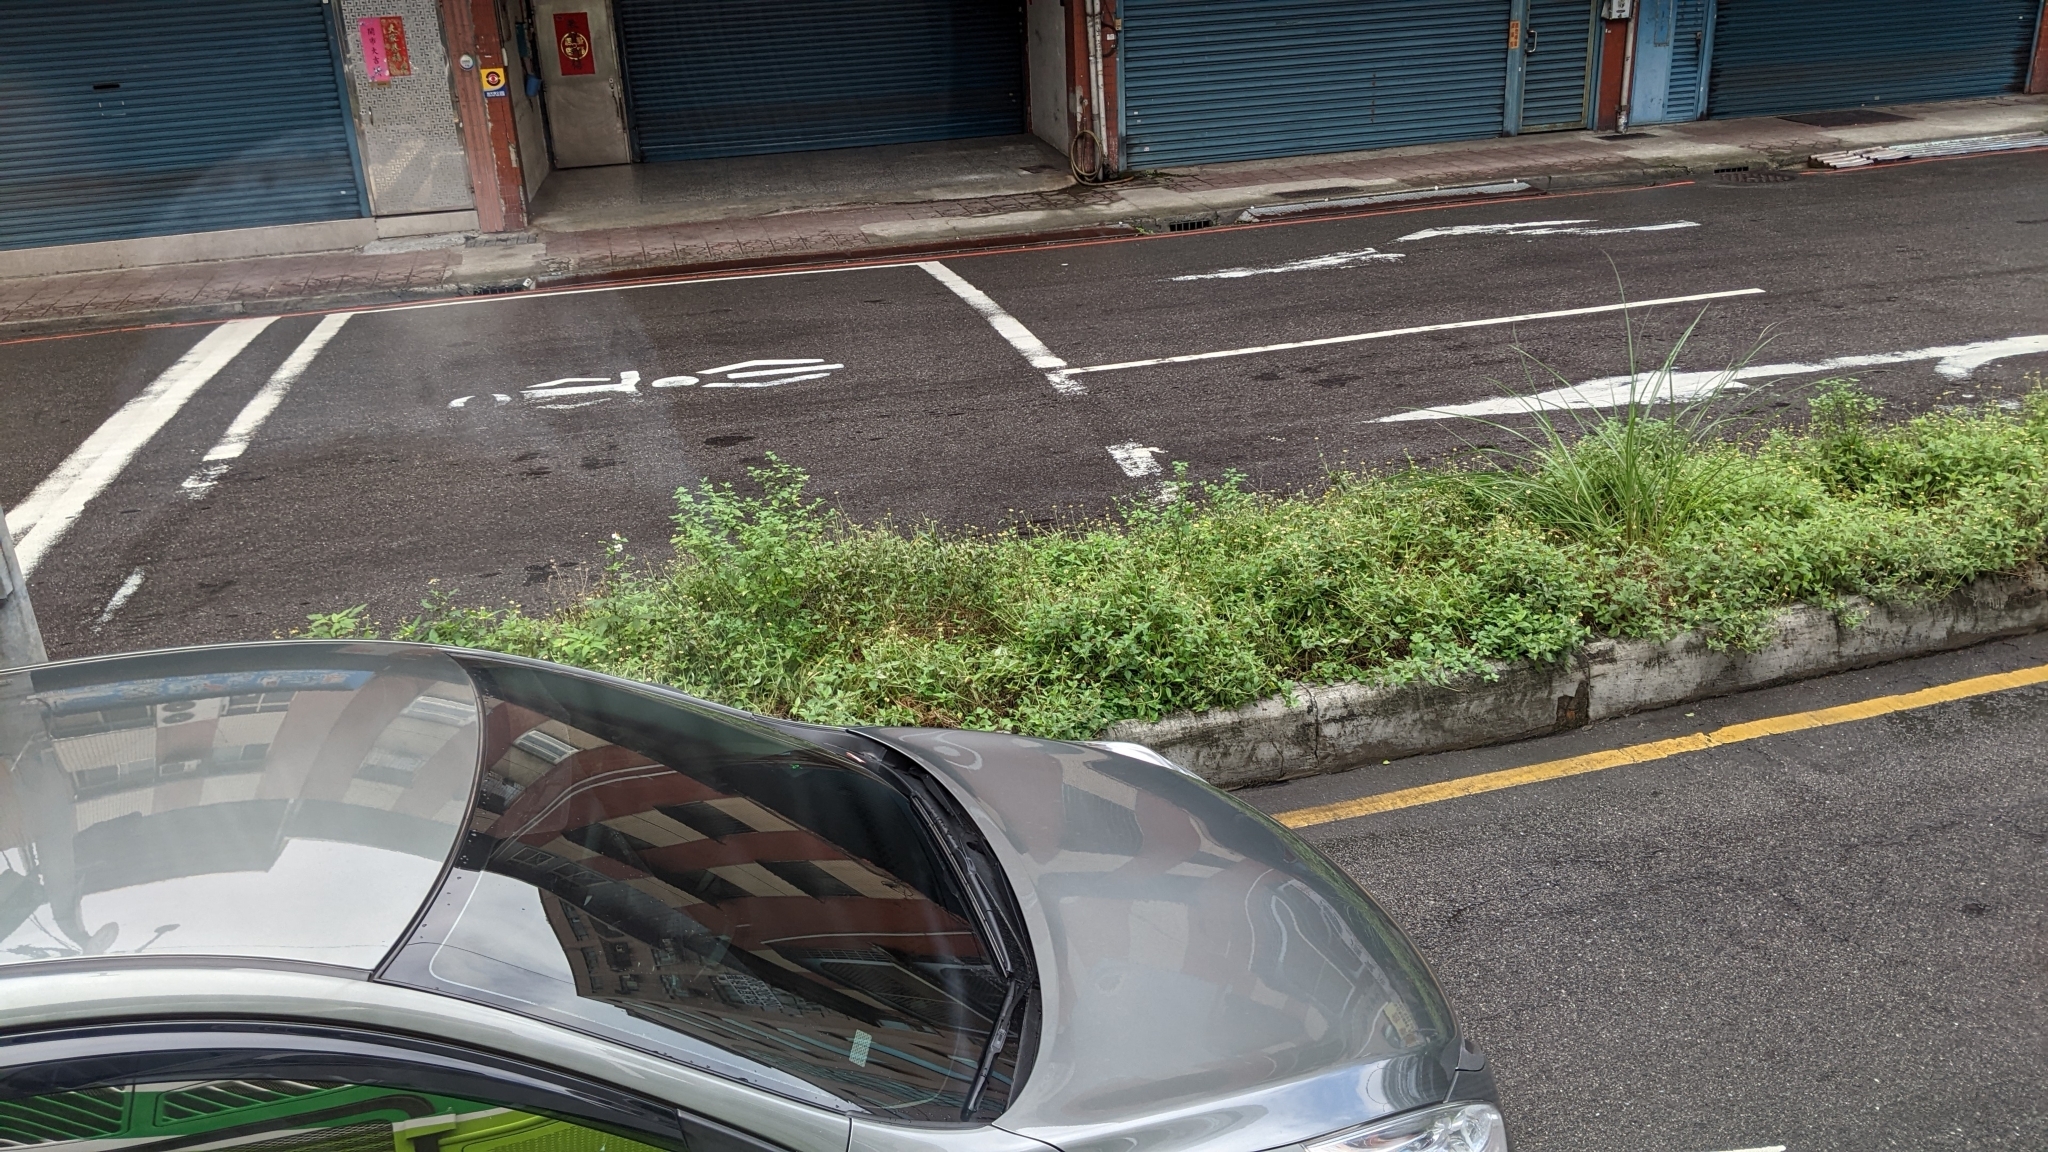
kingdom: Plantae
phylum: Tracheophyta
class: Magnoliopsida
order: Asterales
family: Asteraceae
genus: Tridax
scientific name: Tridax procumbens
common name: Coatbuttons
